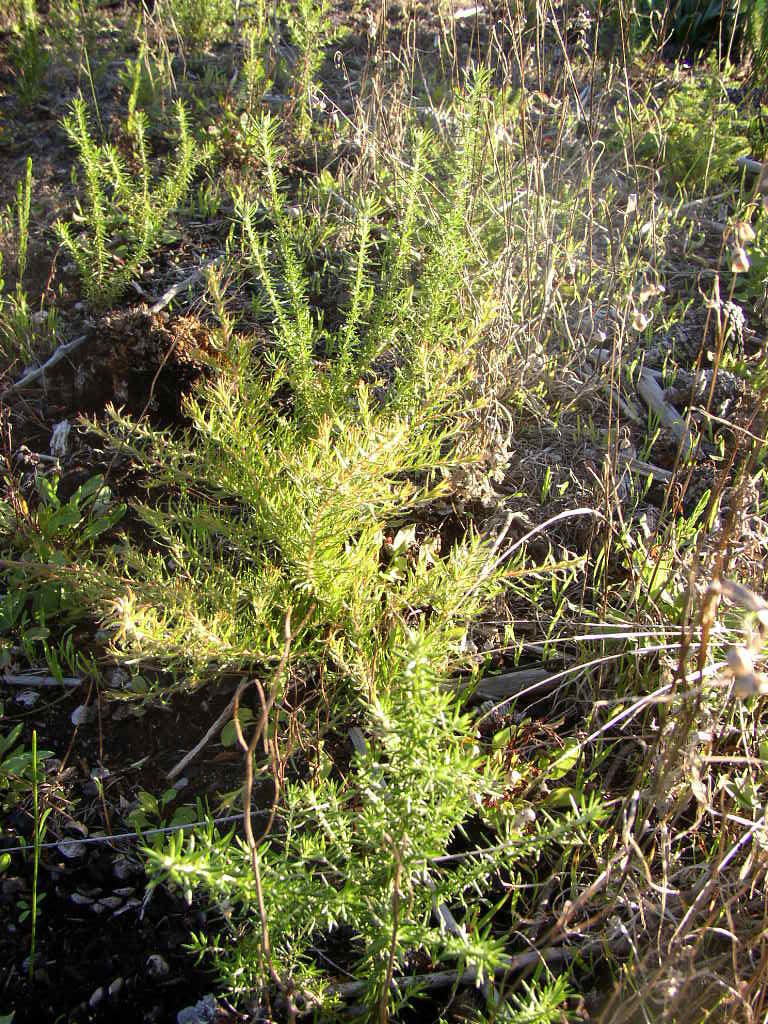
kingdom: Plantae
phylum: Tracheophyta
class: Magnoliopsida
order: Proteales
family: Proteaceae
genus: Diastella
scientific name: Diastella proteoides
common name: Flats silkypuff
